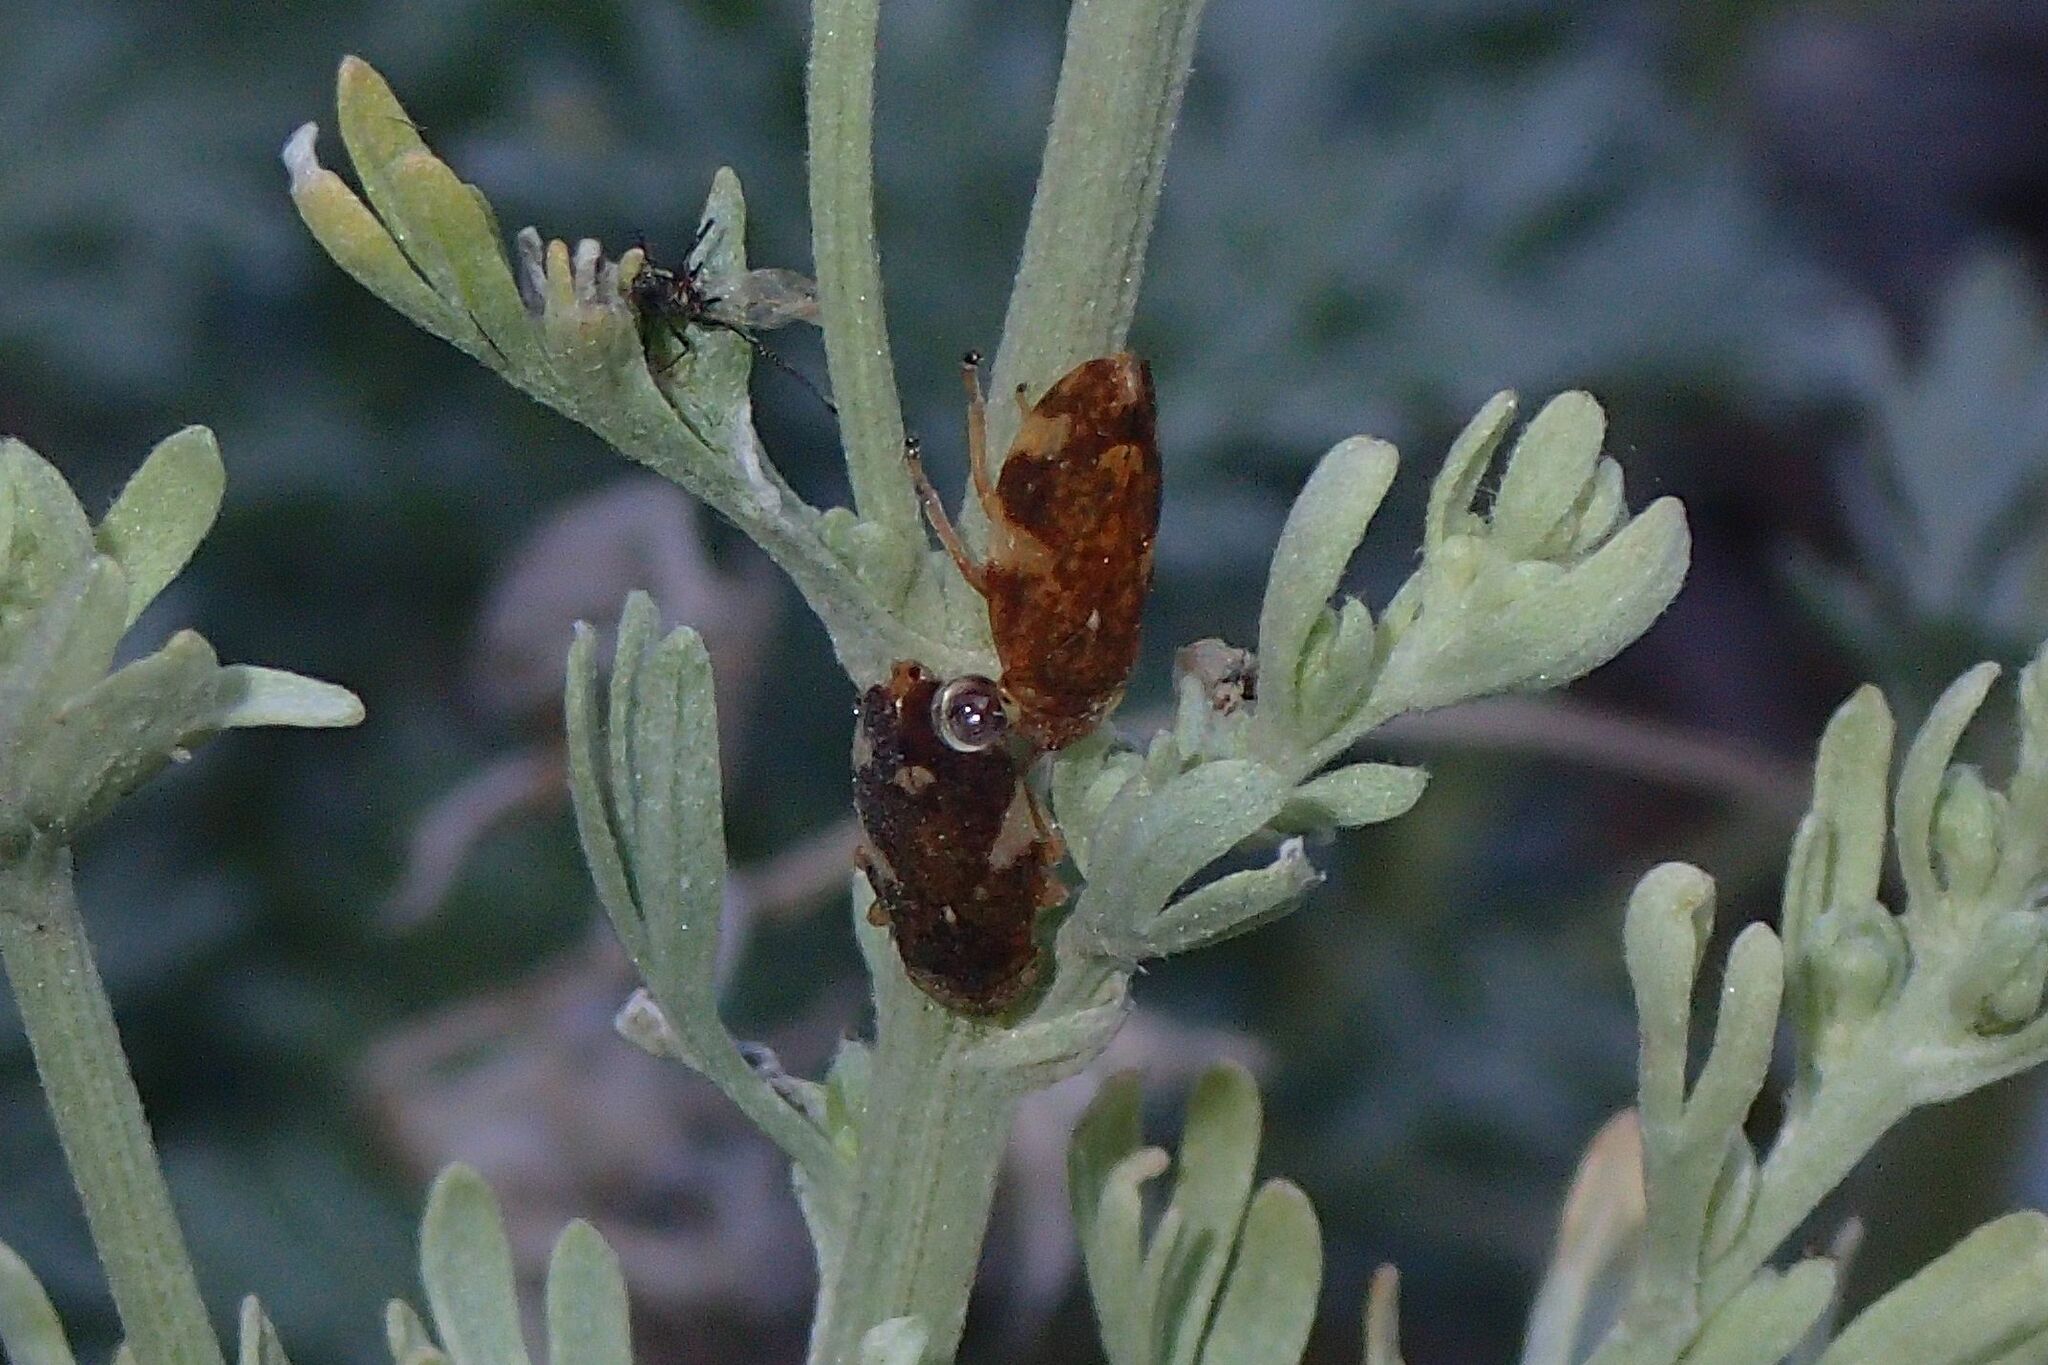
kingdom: Animalia
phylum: Arthropoda
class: Insecta
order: Hemiptera
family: Aphrophoridae
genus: Philaenus
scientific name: Philaenus spumarius
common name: Meadow spittlebug
